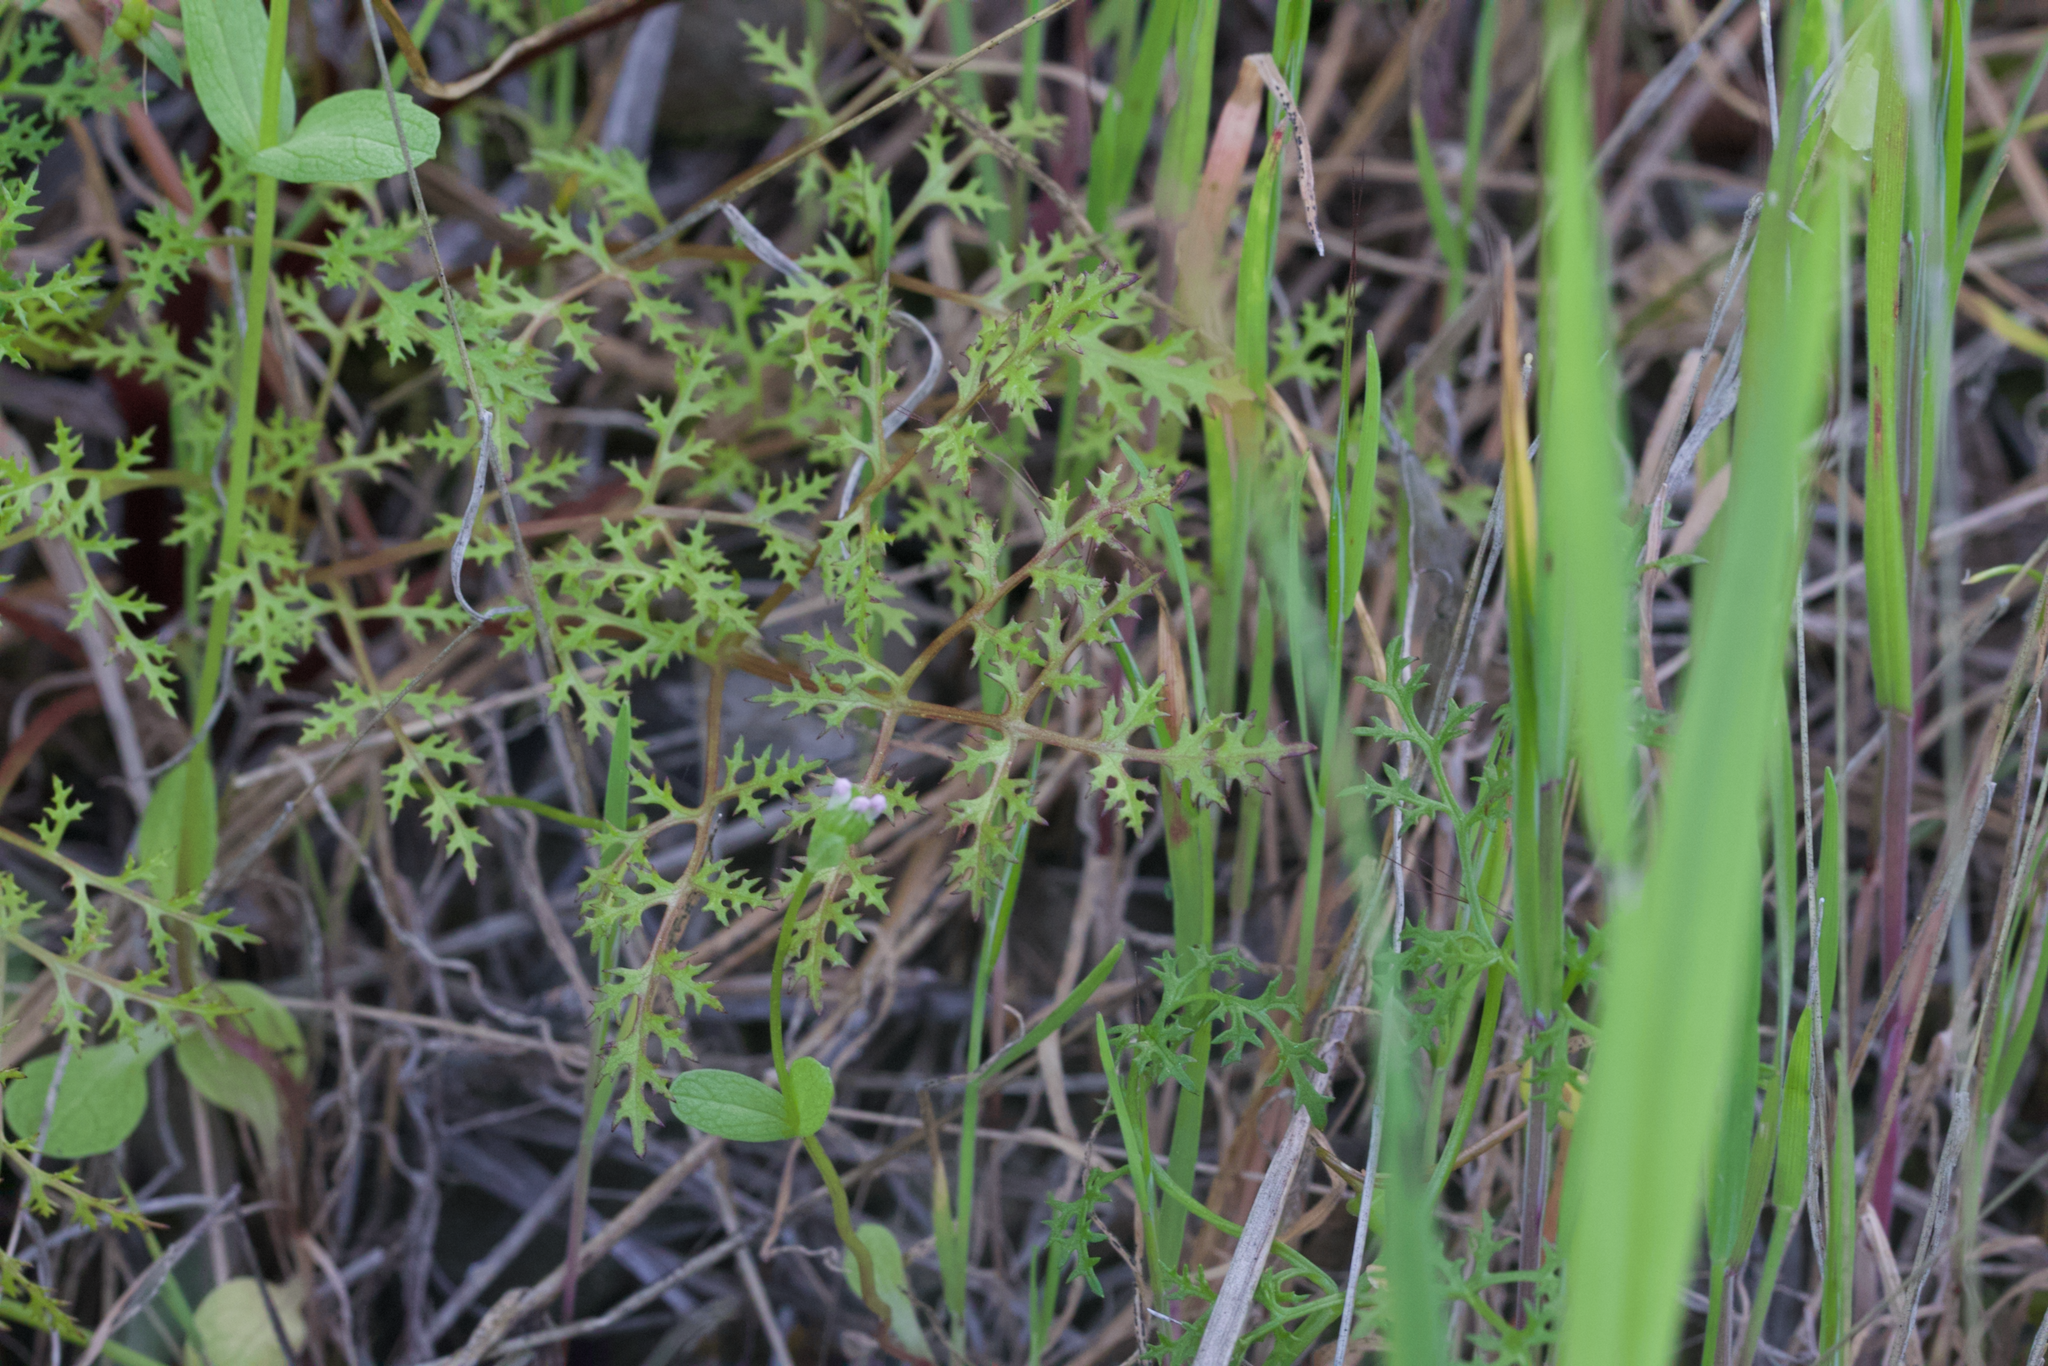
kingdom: Plantae
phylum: Tracheophyta
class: Magnoliopsida
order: Apiales
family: Apiaceae
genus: Sanicula
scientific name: Sanicula tuberosa
